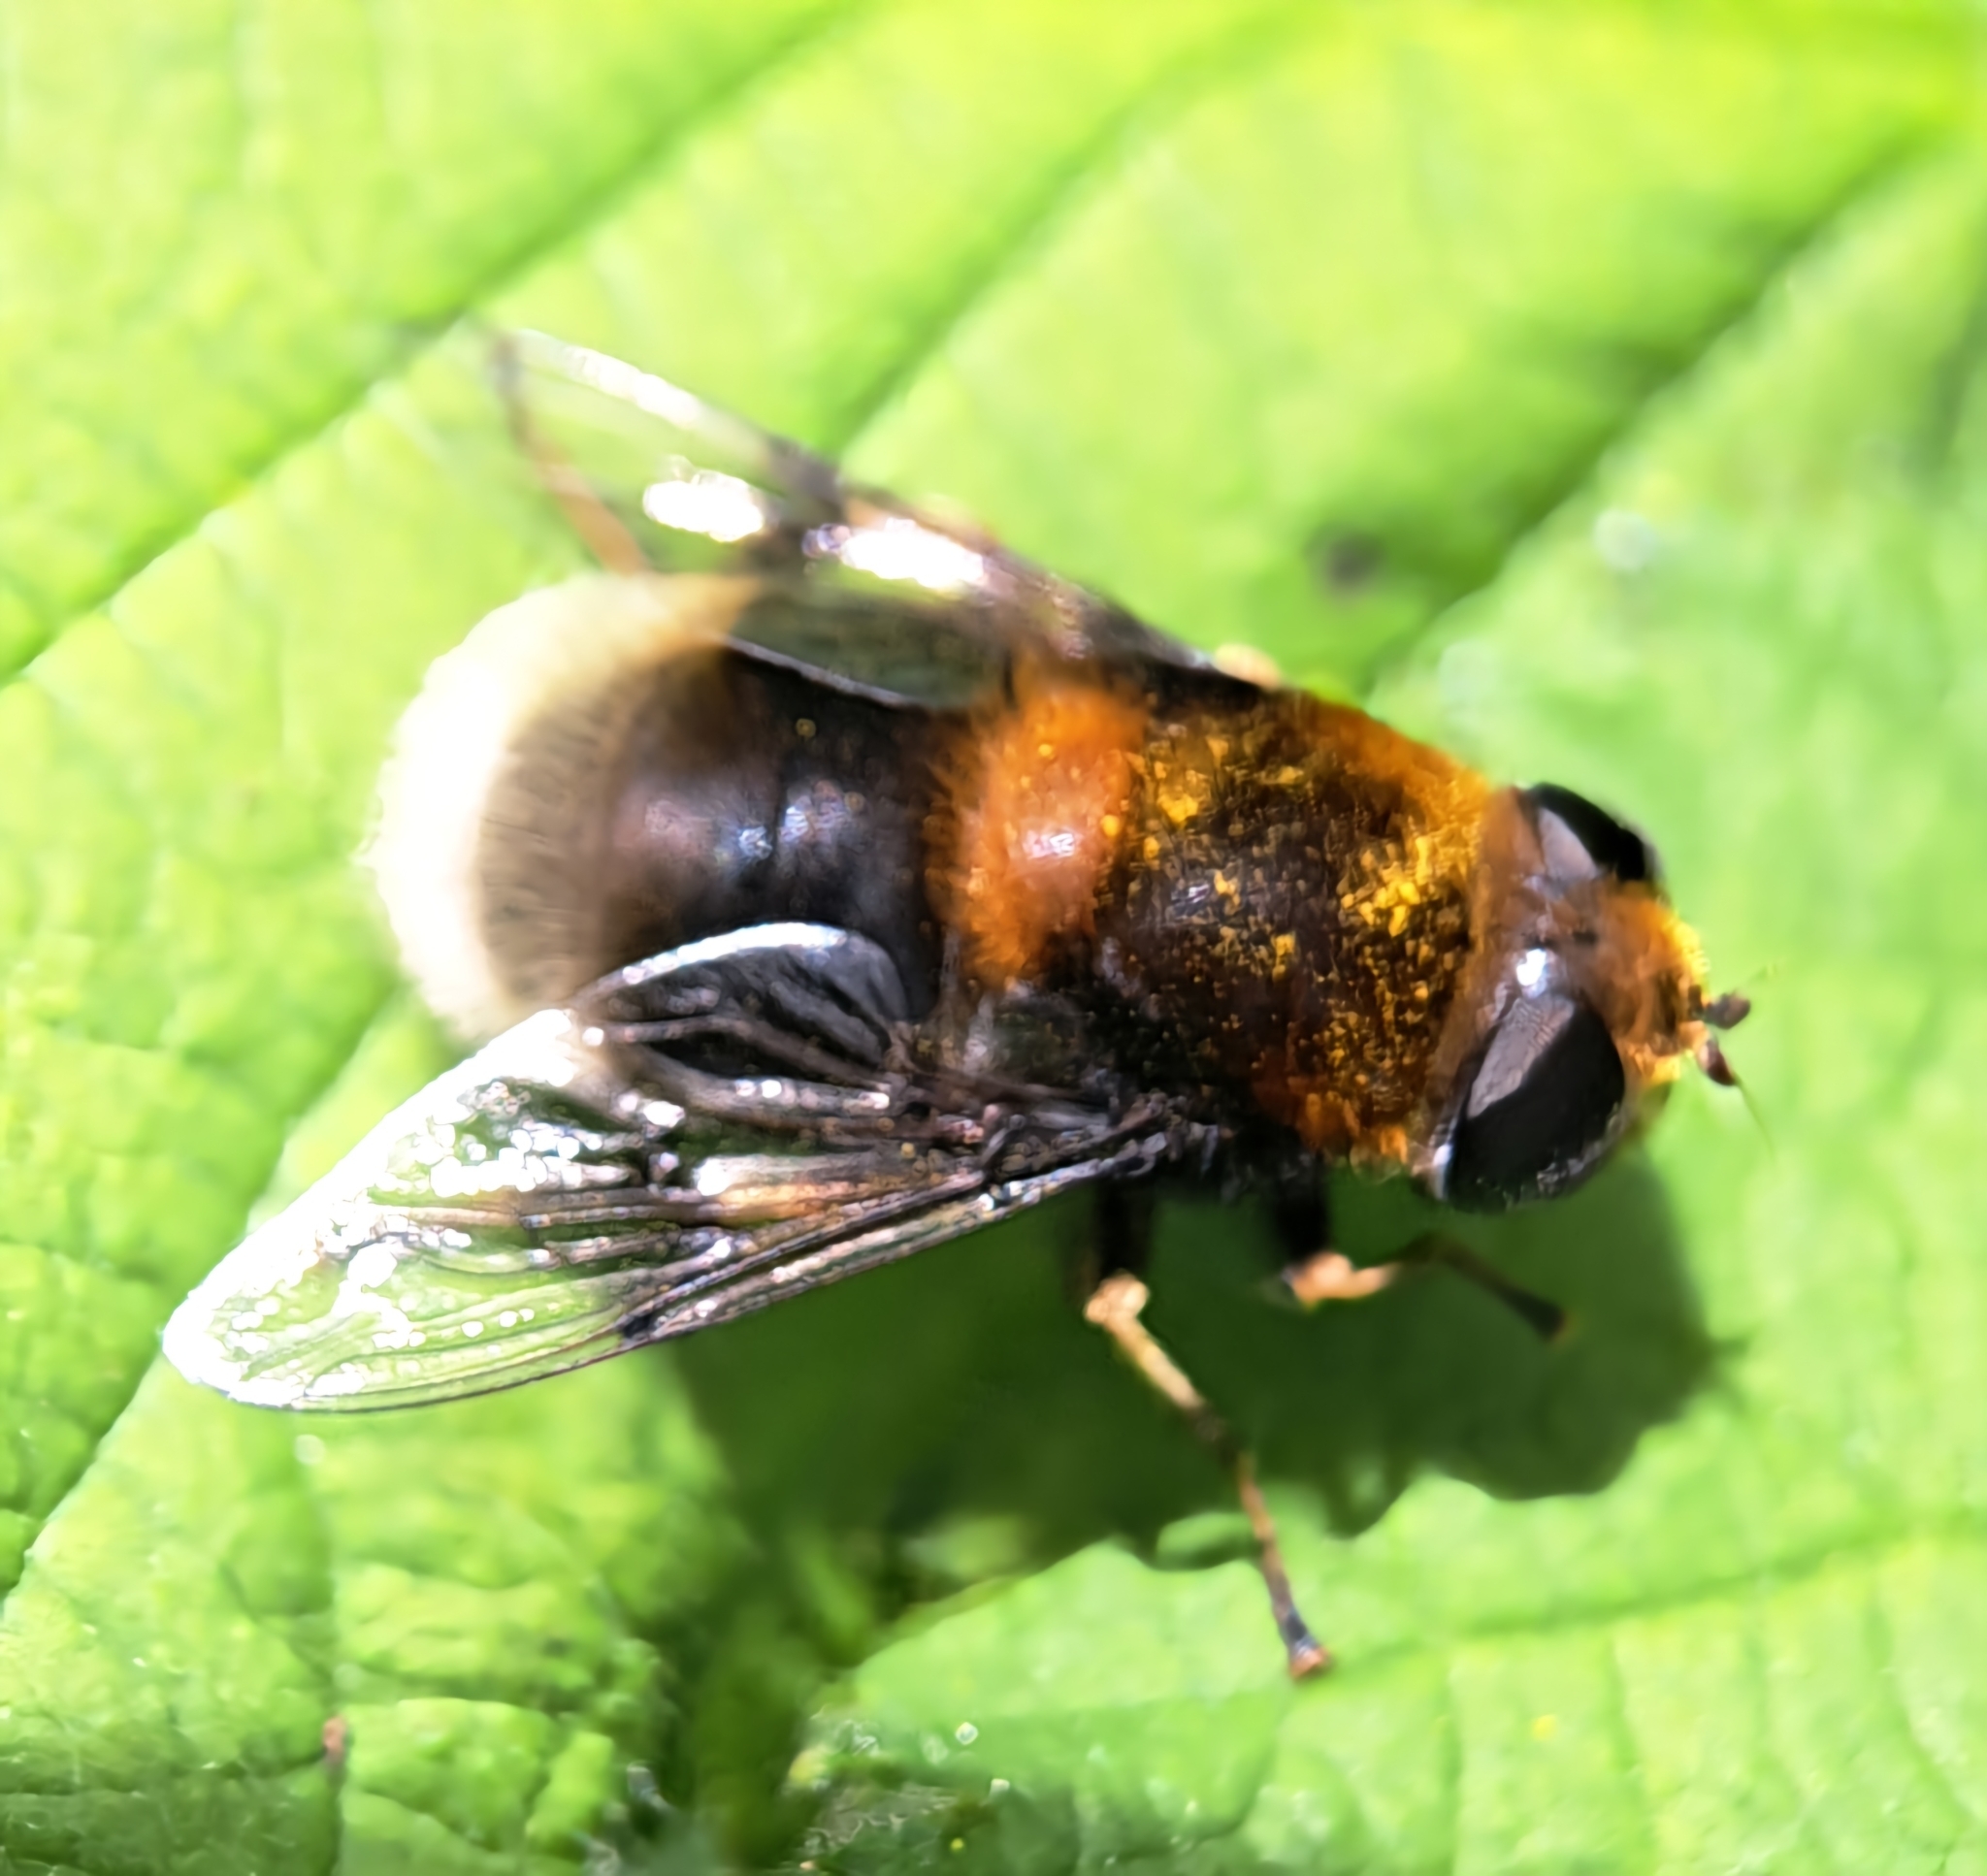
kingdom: Animalia
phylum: Arthropoda
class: Insecta
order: Diptera
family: Syrphidae
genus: Eristalis
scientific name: Eristalis intricaria
